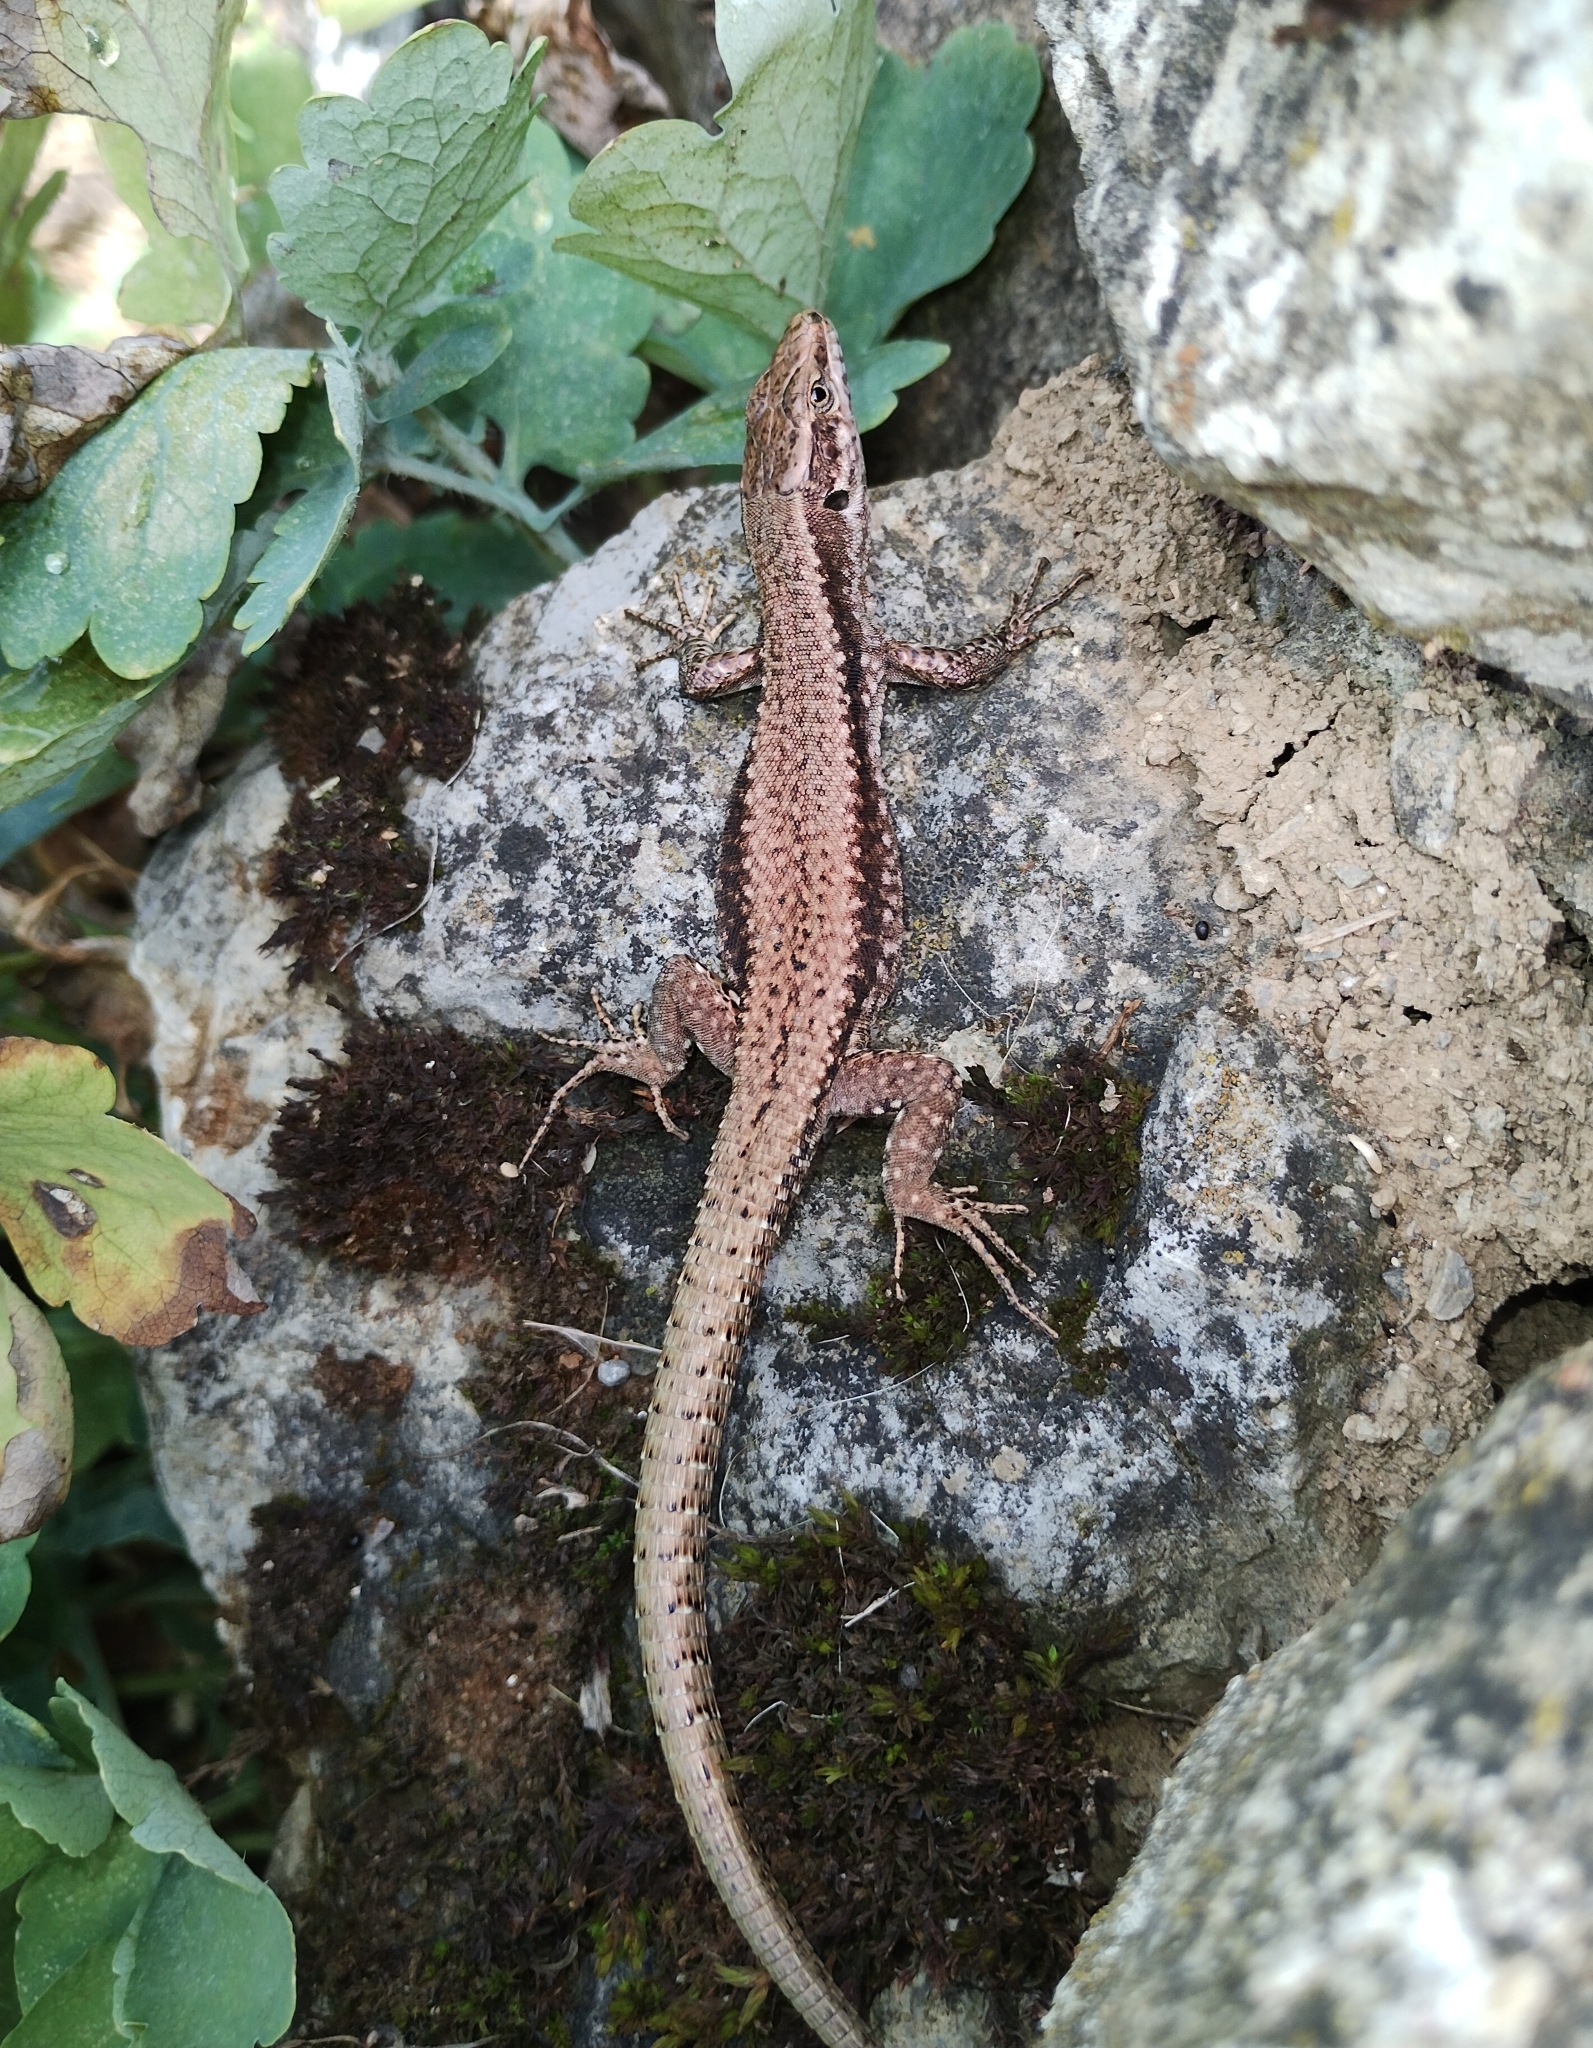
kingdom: Animalia
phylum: Chordata
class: Squamata
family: Lacertidae
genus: Podarcis
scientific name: Podarcis muralis
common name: Common wall lizard
